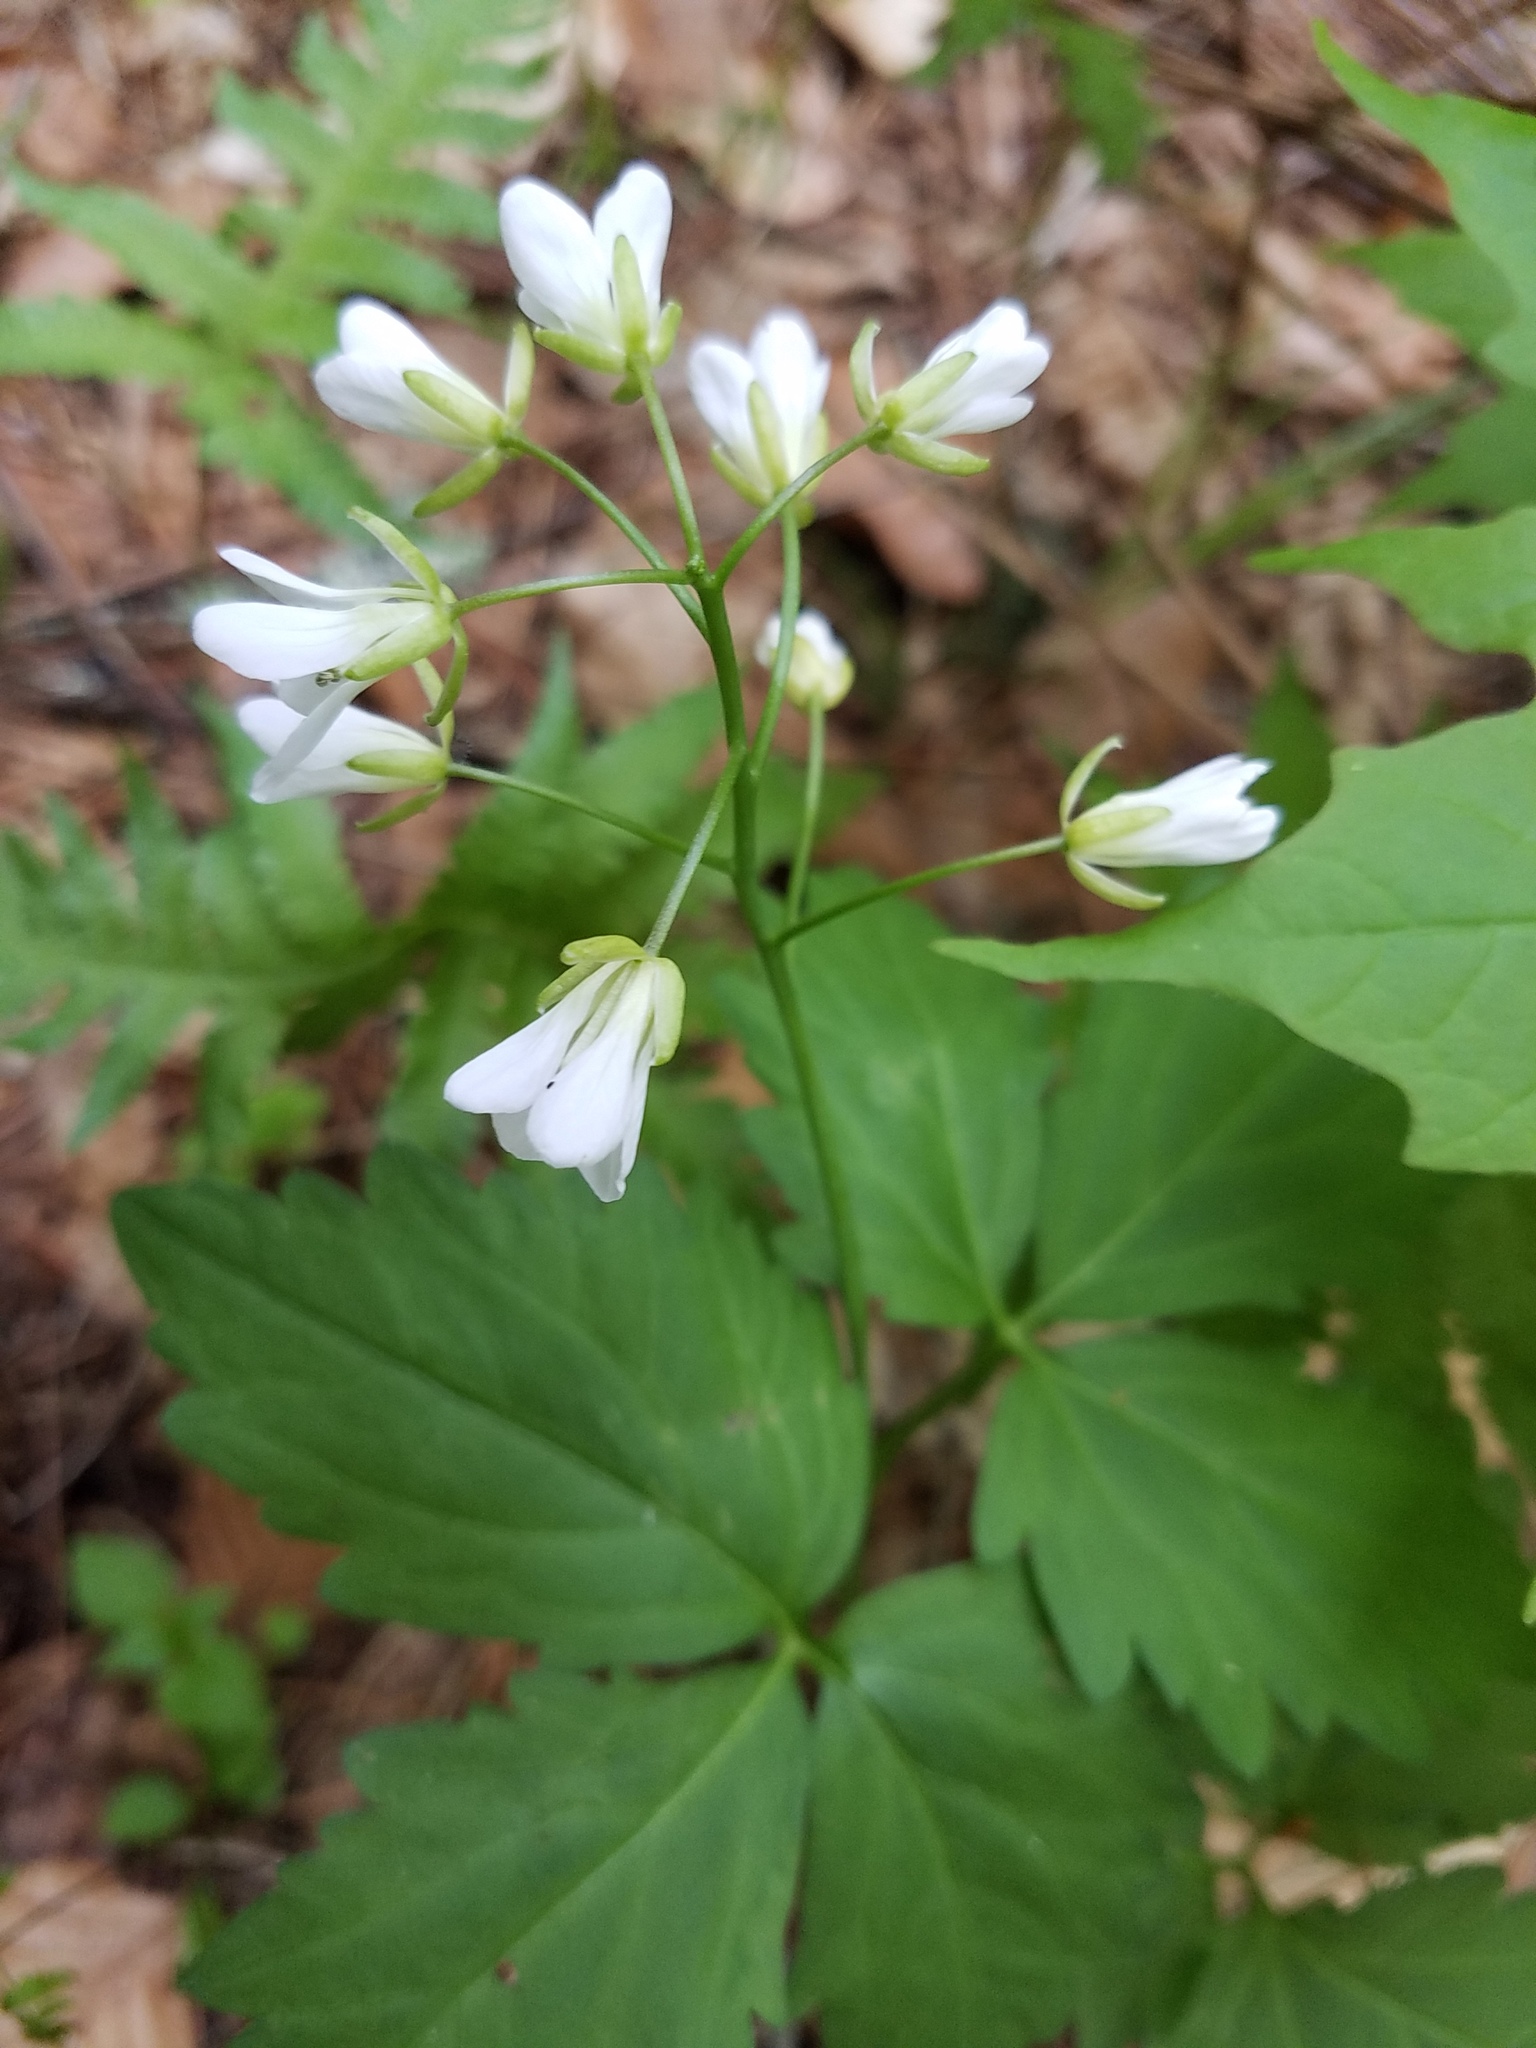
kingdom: Plantae
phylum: Tracheophyta
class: Magnoliopsida
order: Brassicales
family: Brassicaceae
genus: Cardamine
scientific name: Cardamine diphylla
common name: Broad-leaved toothwort
